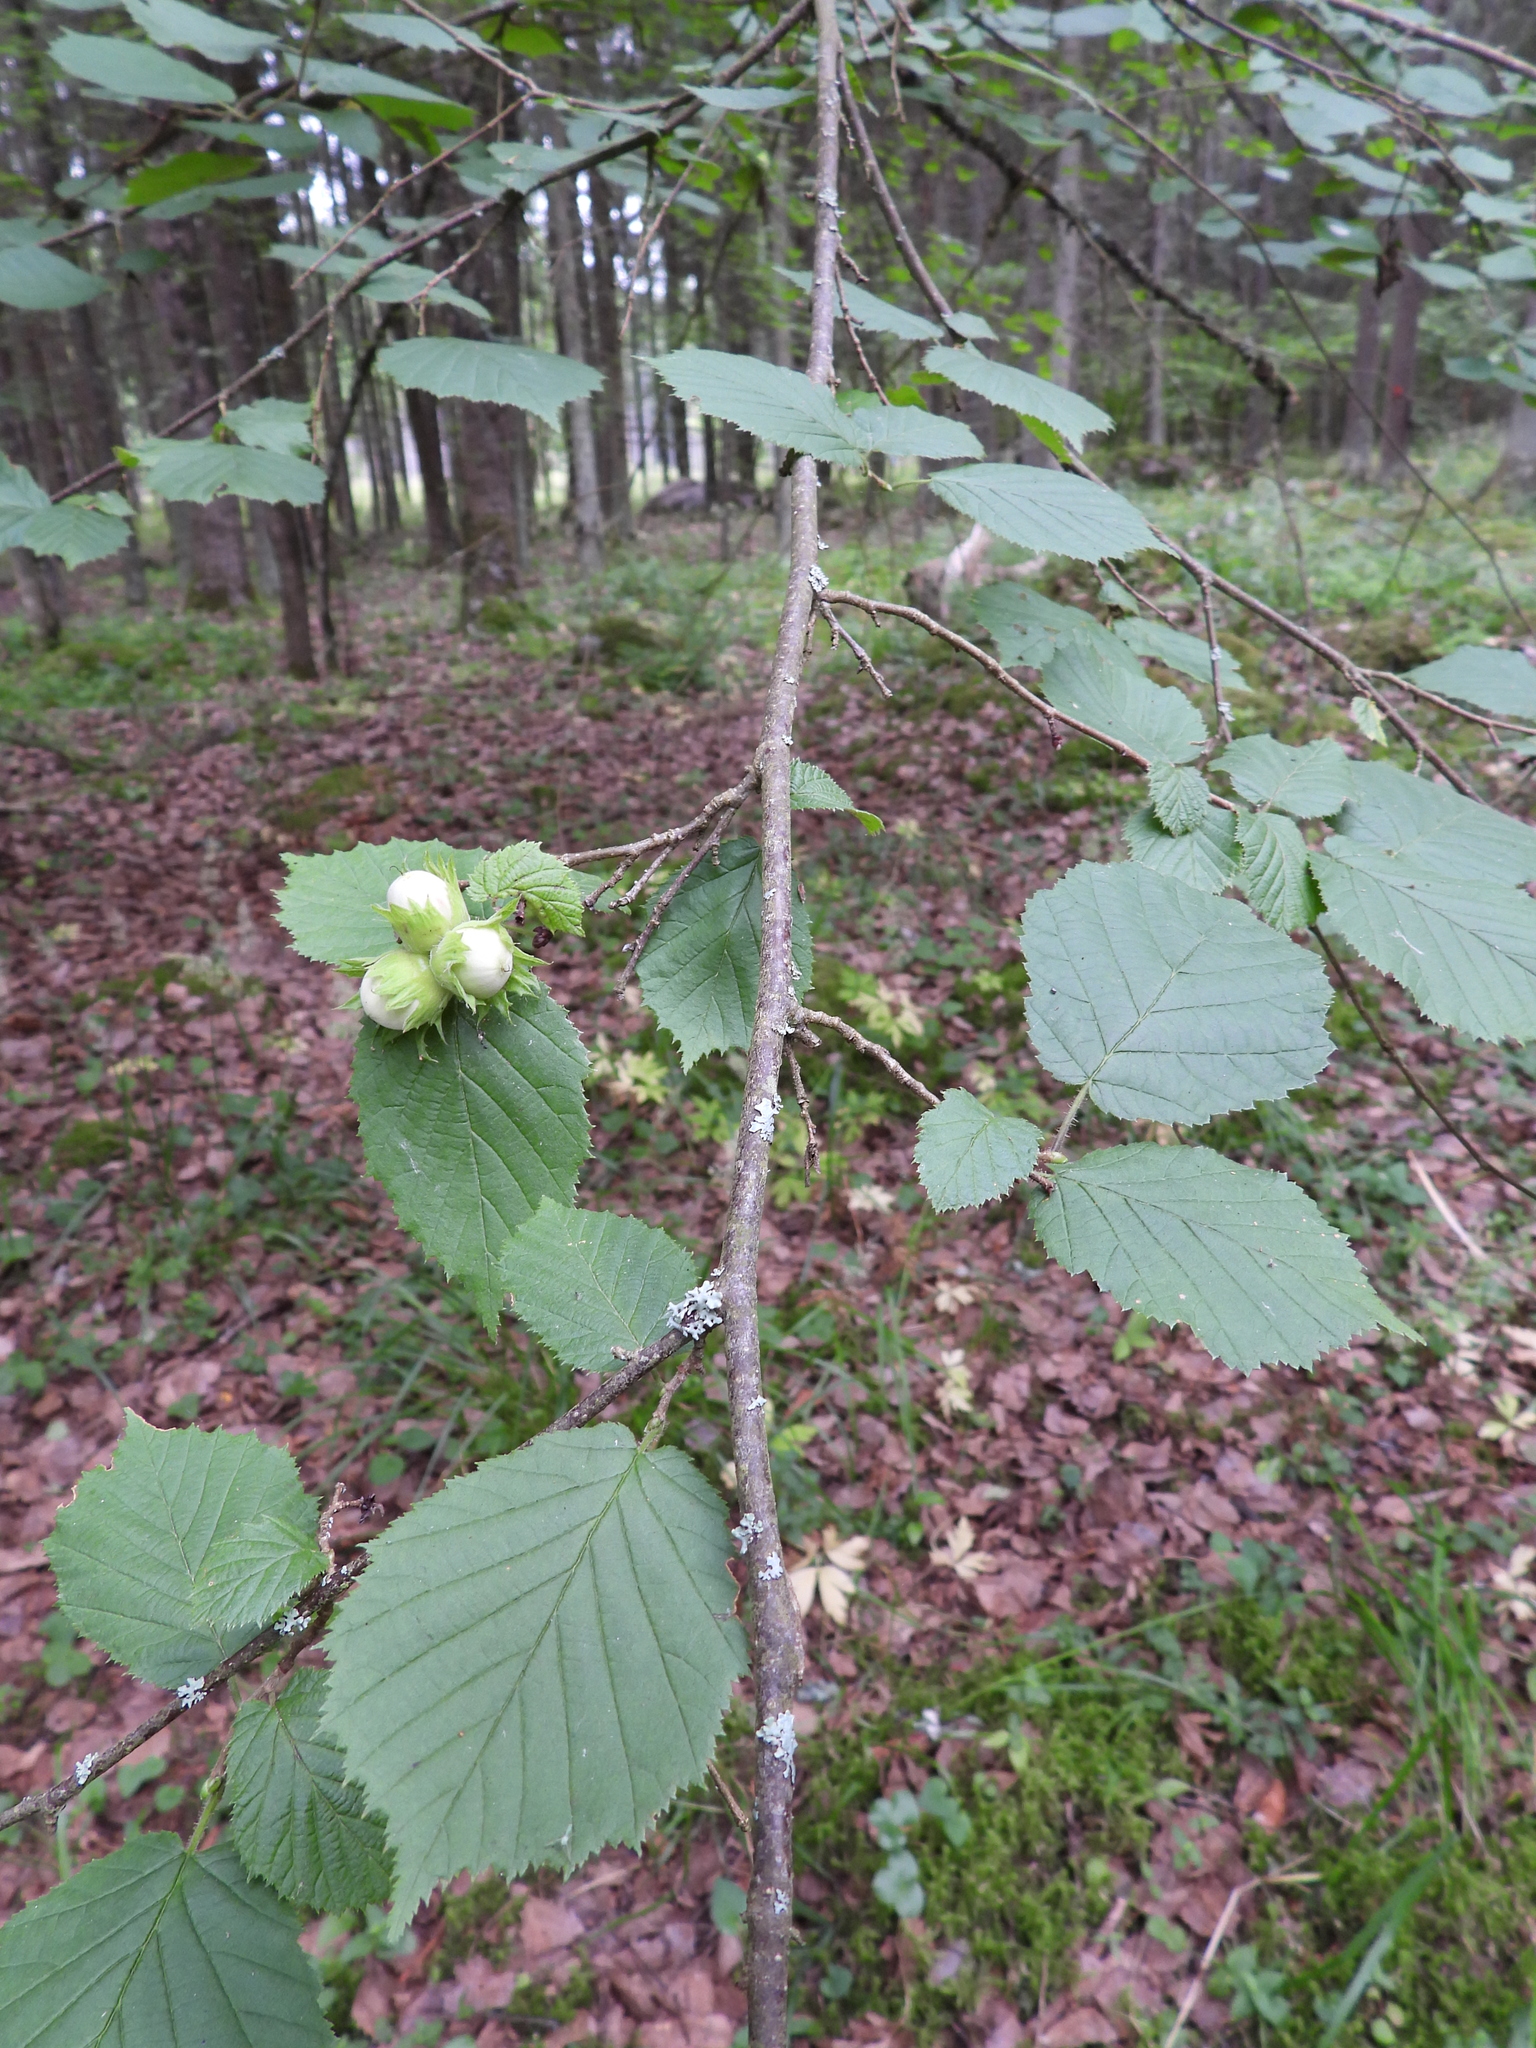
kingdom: Plantae
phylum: Tracheophyta
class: Magnoliopsida
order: Fagales
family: Betulaceae
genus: Corylus
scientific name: Corylus avellana
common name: European hazel
